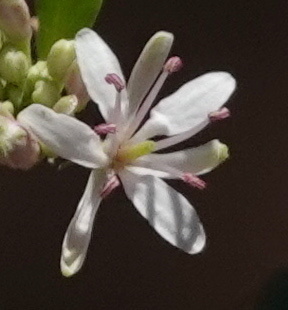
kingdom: Plantae
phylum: Tracheophyta
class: Magnoliopsida
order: Brassicales
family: Brassicaceae
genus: Thelypodium
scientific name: Thelypodium wrightii
